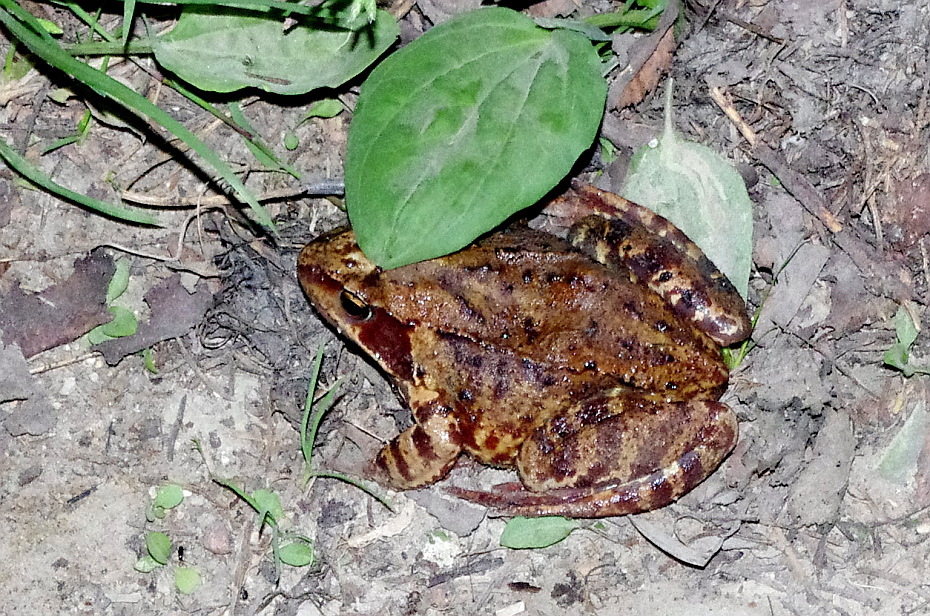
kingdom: Animalia
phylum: Chordata
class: Amphibia
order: Anura
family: Ranidae
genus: Rana
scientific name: Rana temporaria
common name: Common frog
